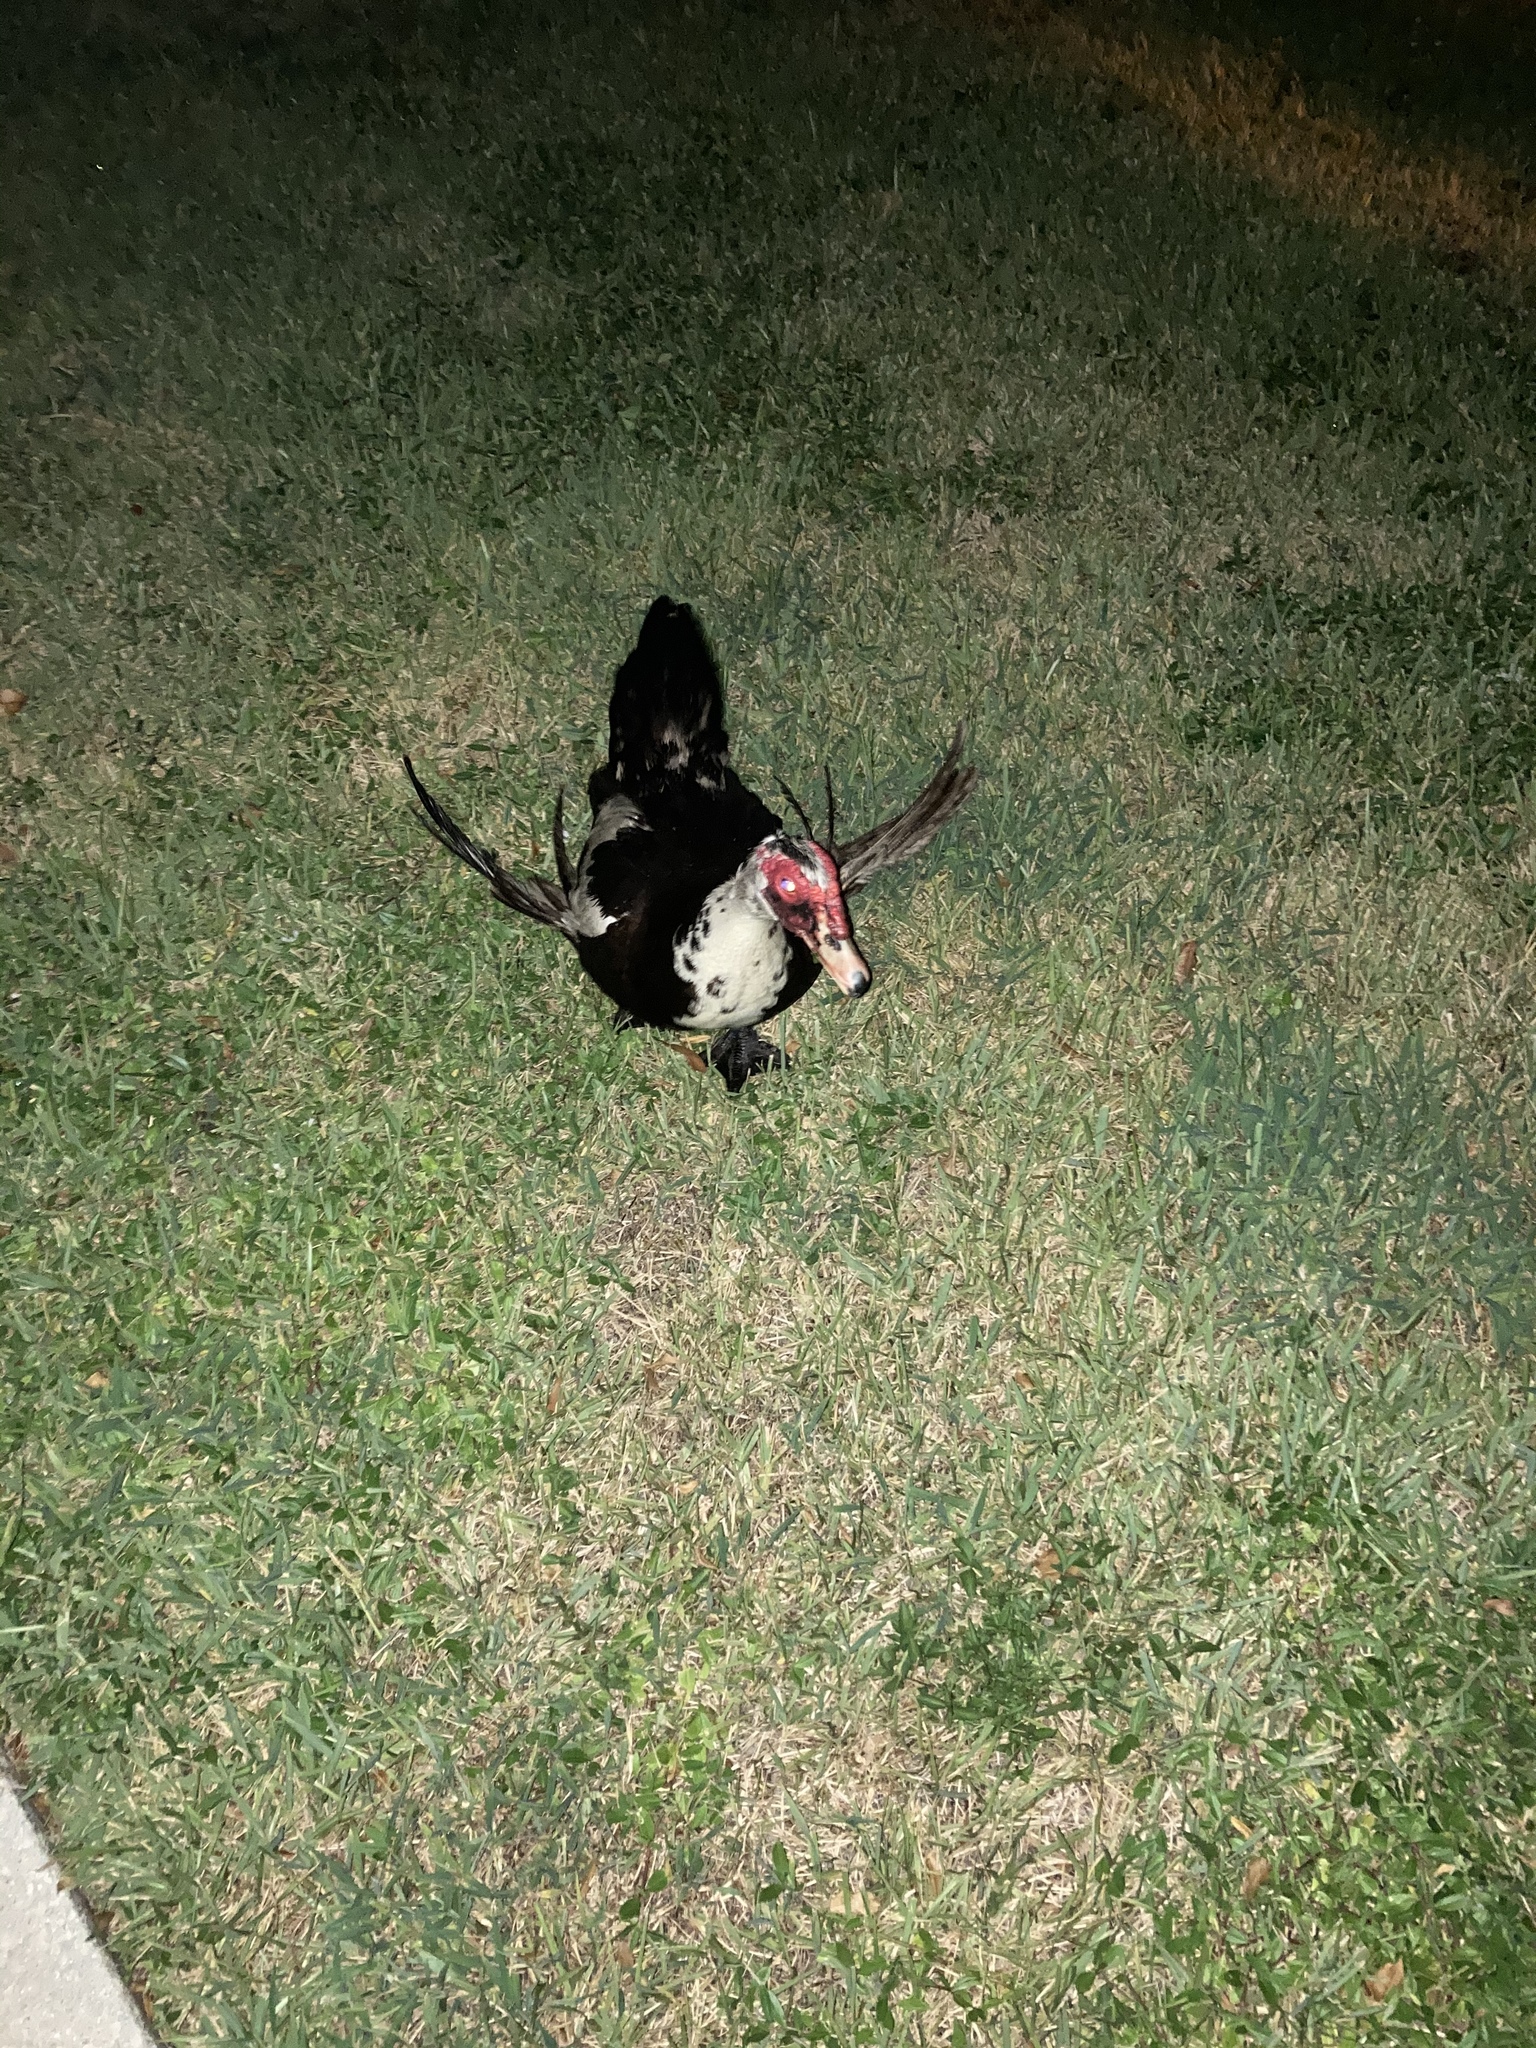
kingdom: Animalia
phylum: Chordata
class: Aves
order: Anseriformes
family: Anatidae
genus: Cairina
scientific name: Cairina moschata
